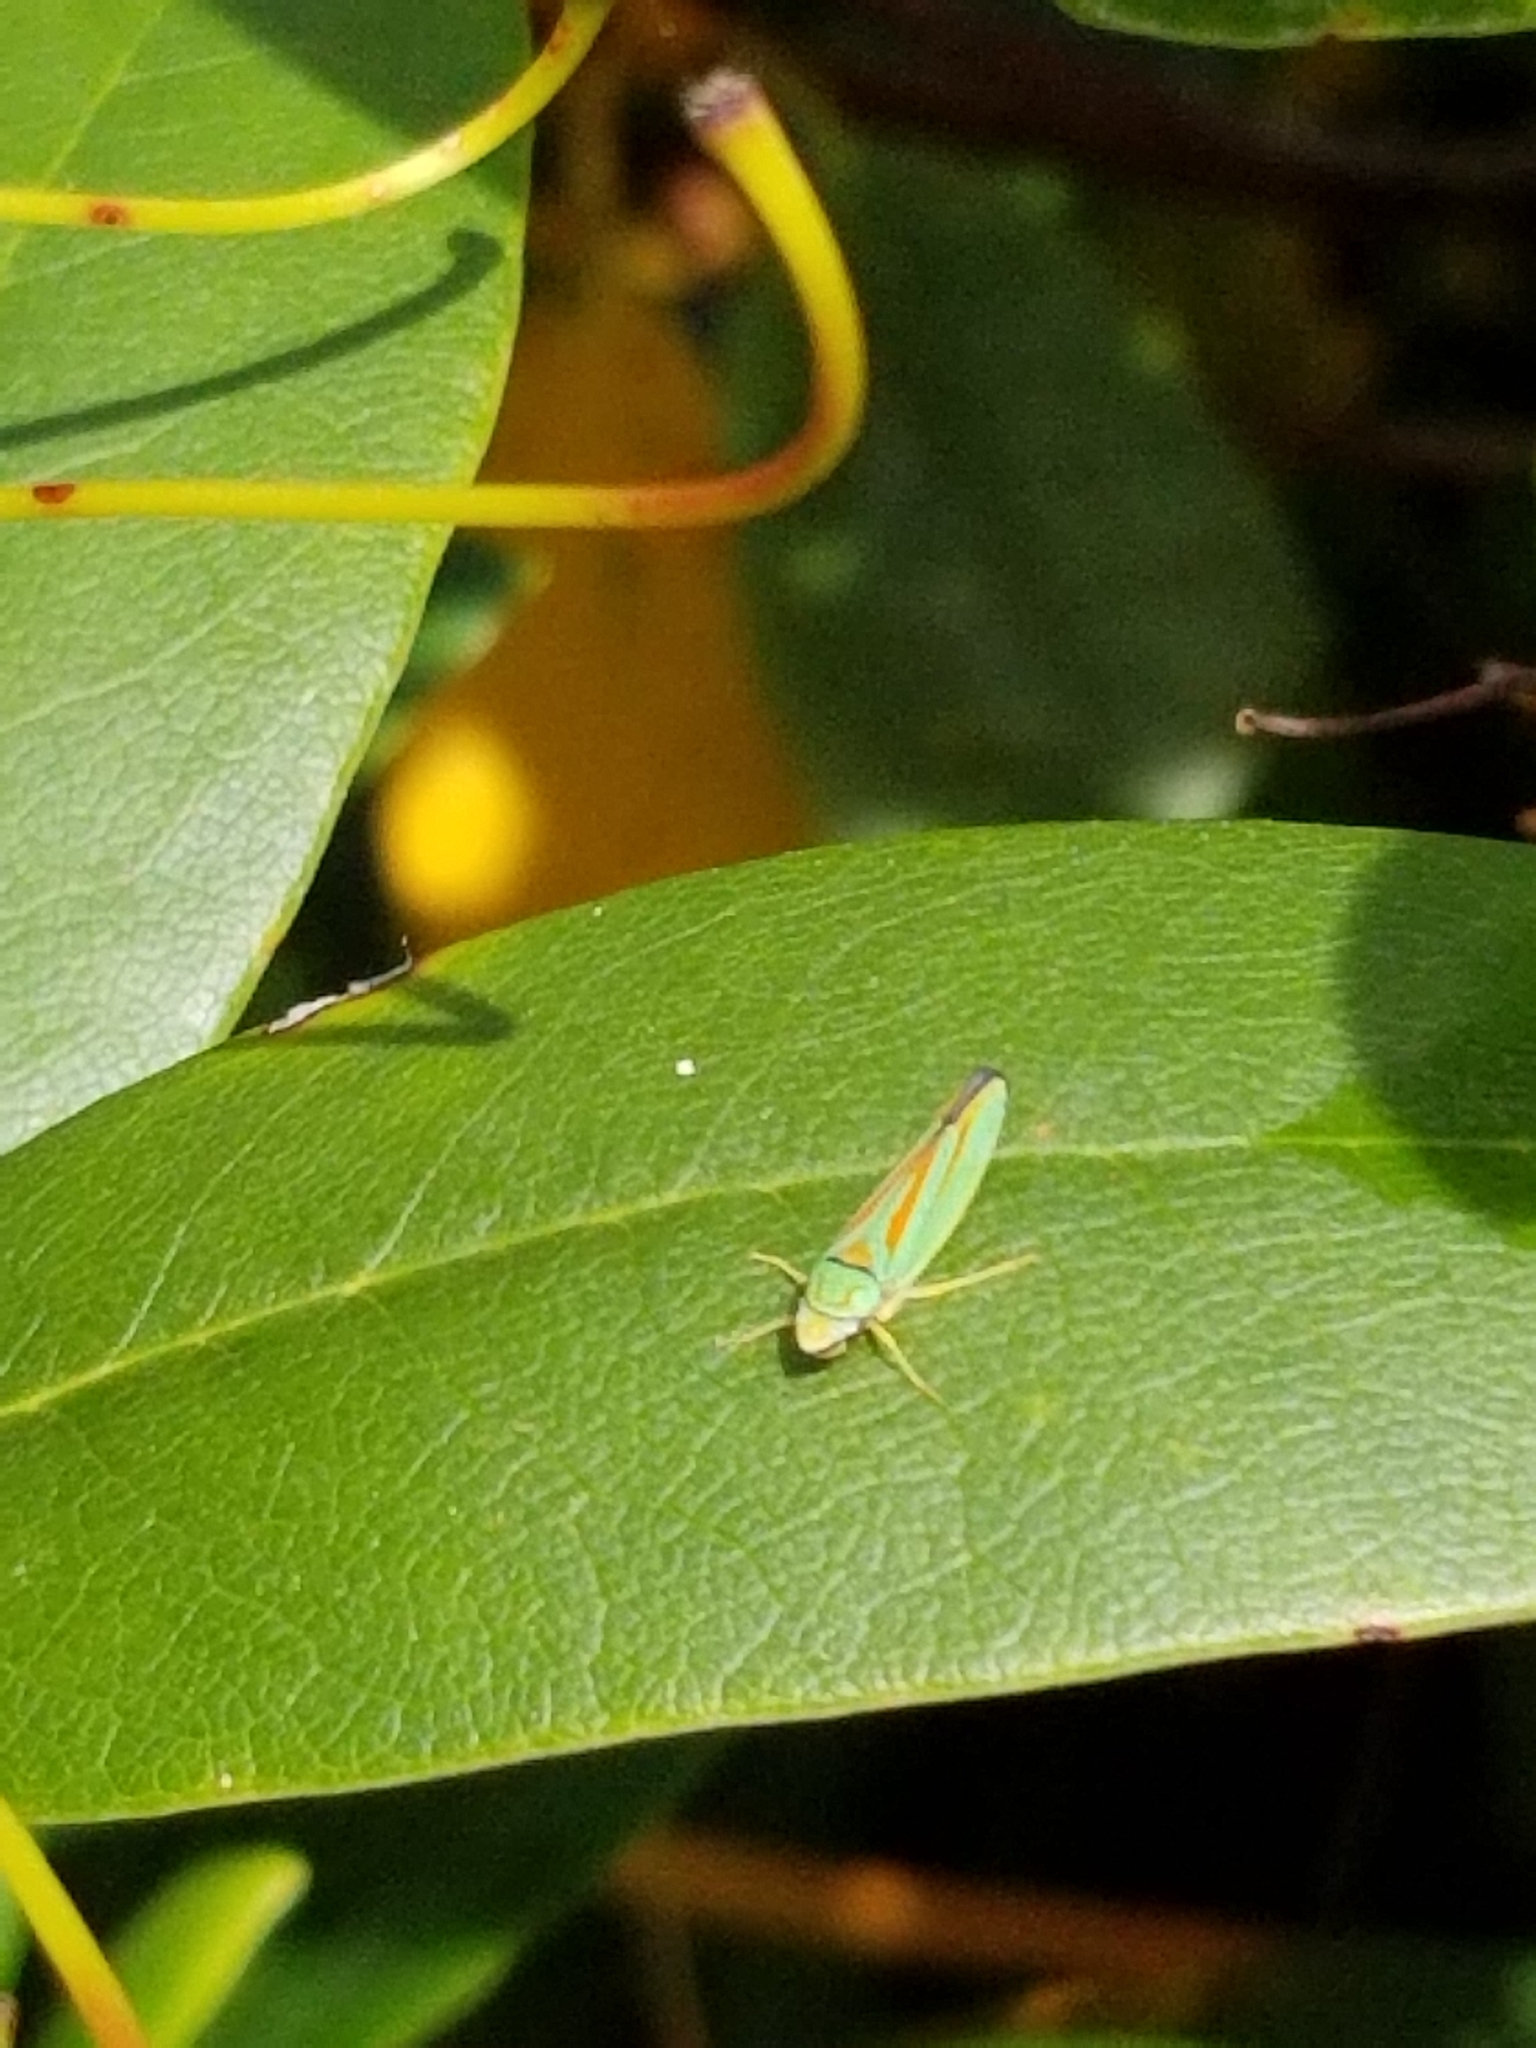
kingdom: Animalia
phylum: Arthropoda
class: Insecta
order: Hemiptera
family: Cicadellidae
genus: Graphocephala
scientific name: Graphocephala fennahi
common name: Rhododendron leafhopper
